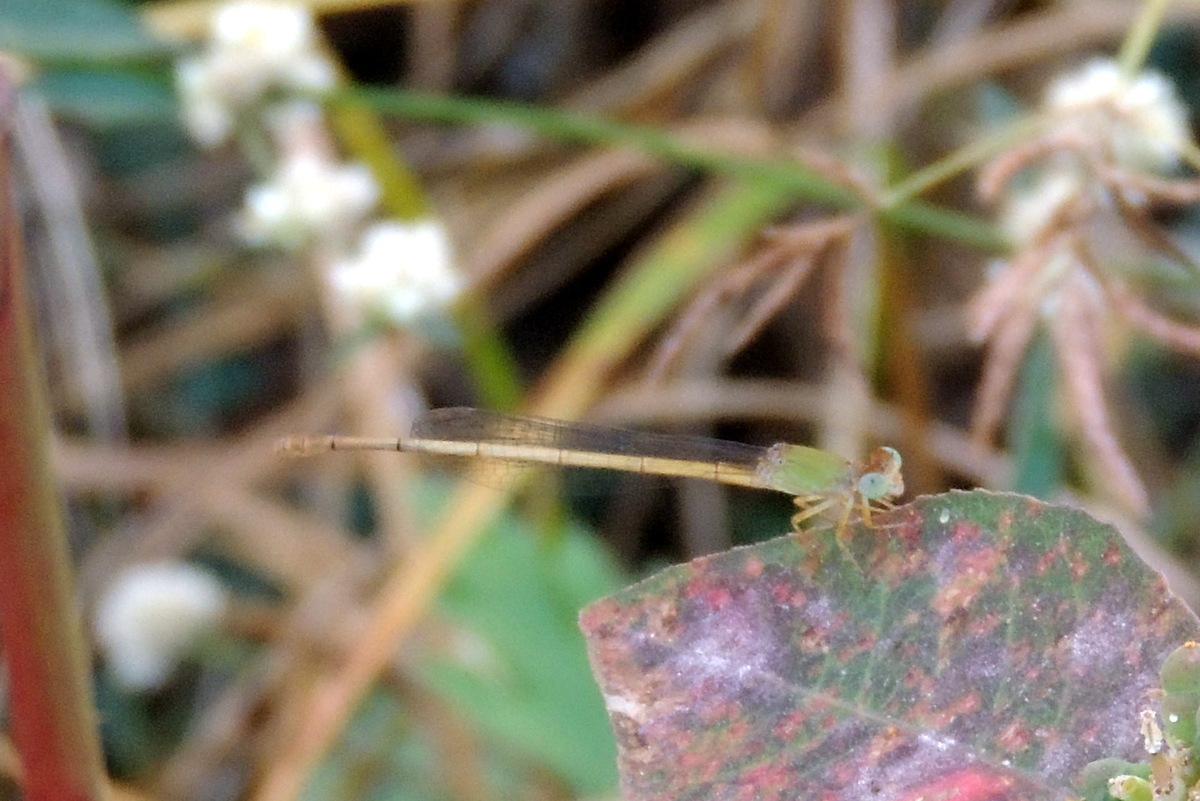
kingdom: Animalia
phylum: Arthropoda
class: Insecta
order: Odonata
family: Coenagrionidae
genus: Ceriagrion
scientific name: Ceriagrion coromandelianum
